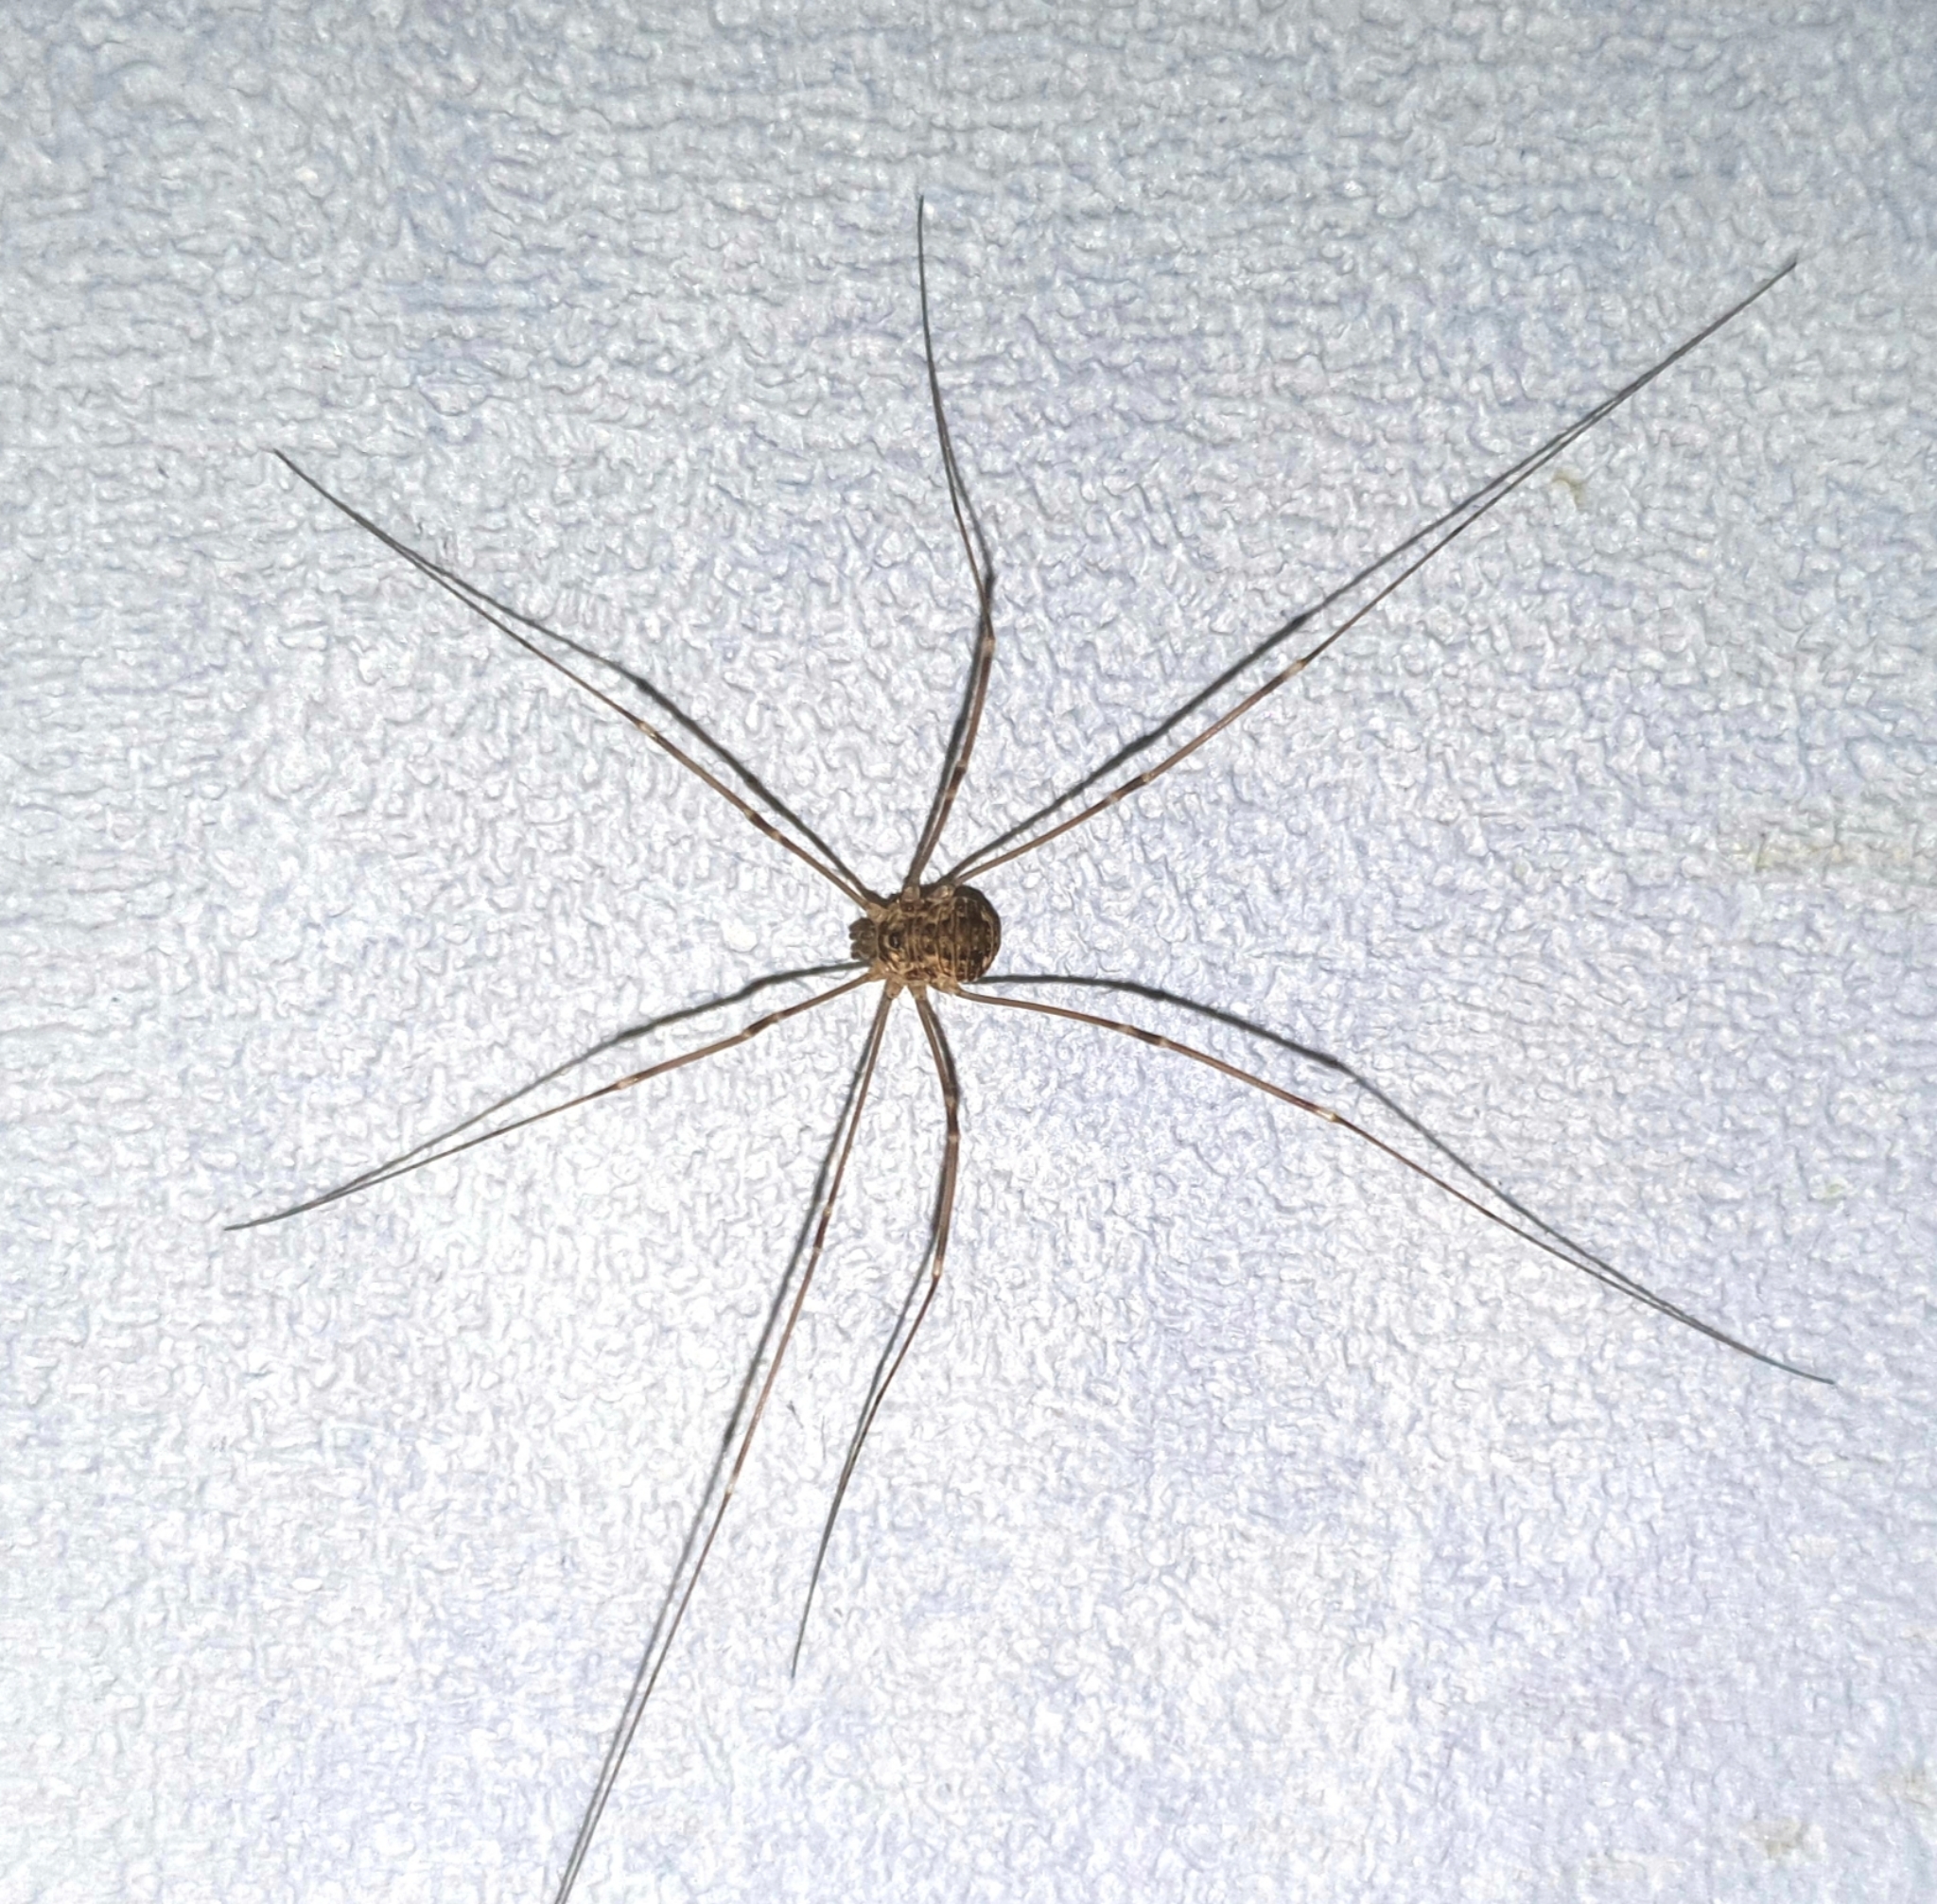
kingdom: Animalia
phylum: Arthropoda
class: Arachnida
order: Opiliones
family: Sclerosomatidae
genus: Leiobunum
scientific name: Leiobunum gracile
